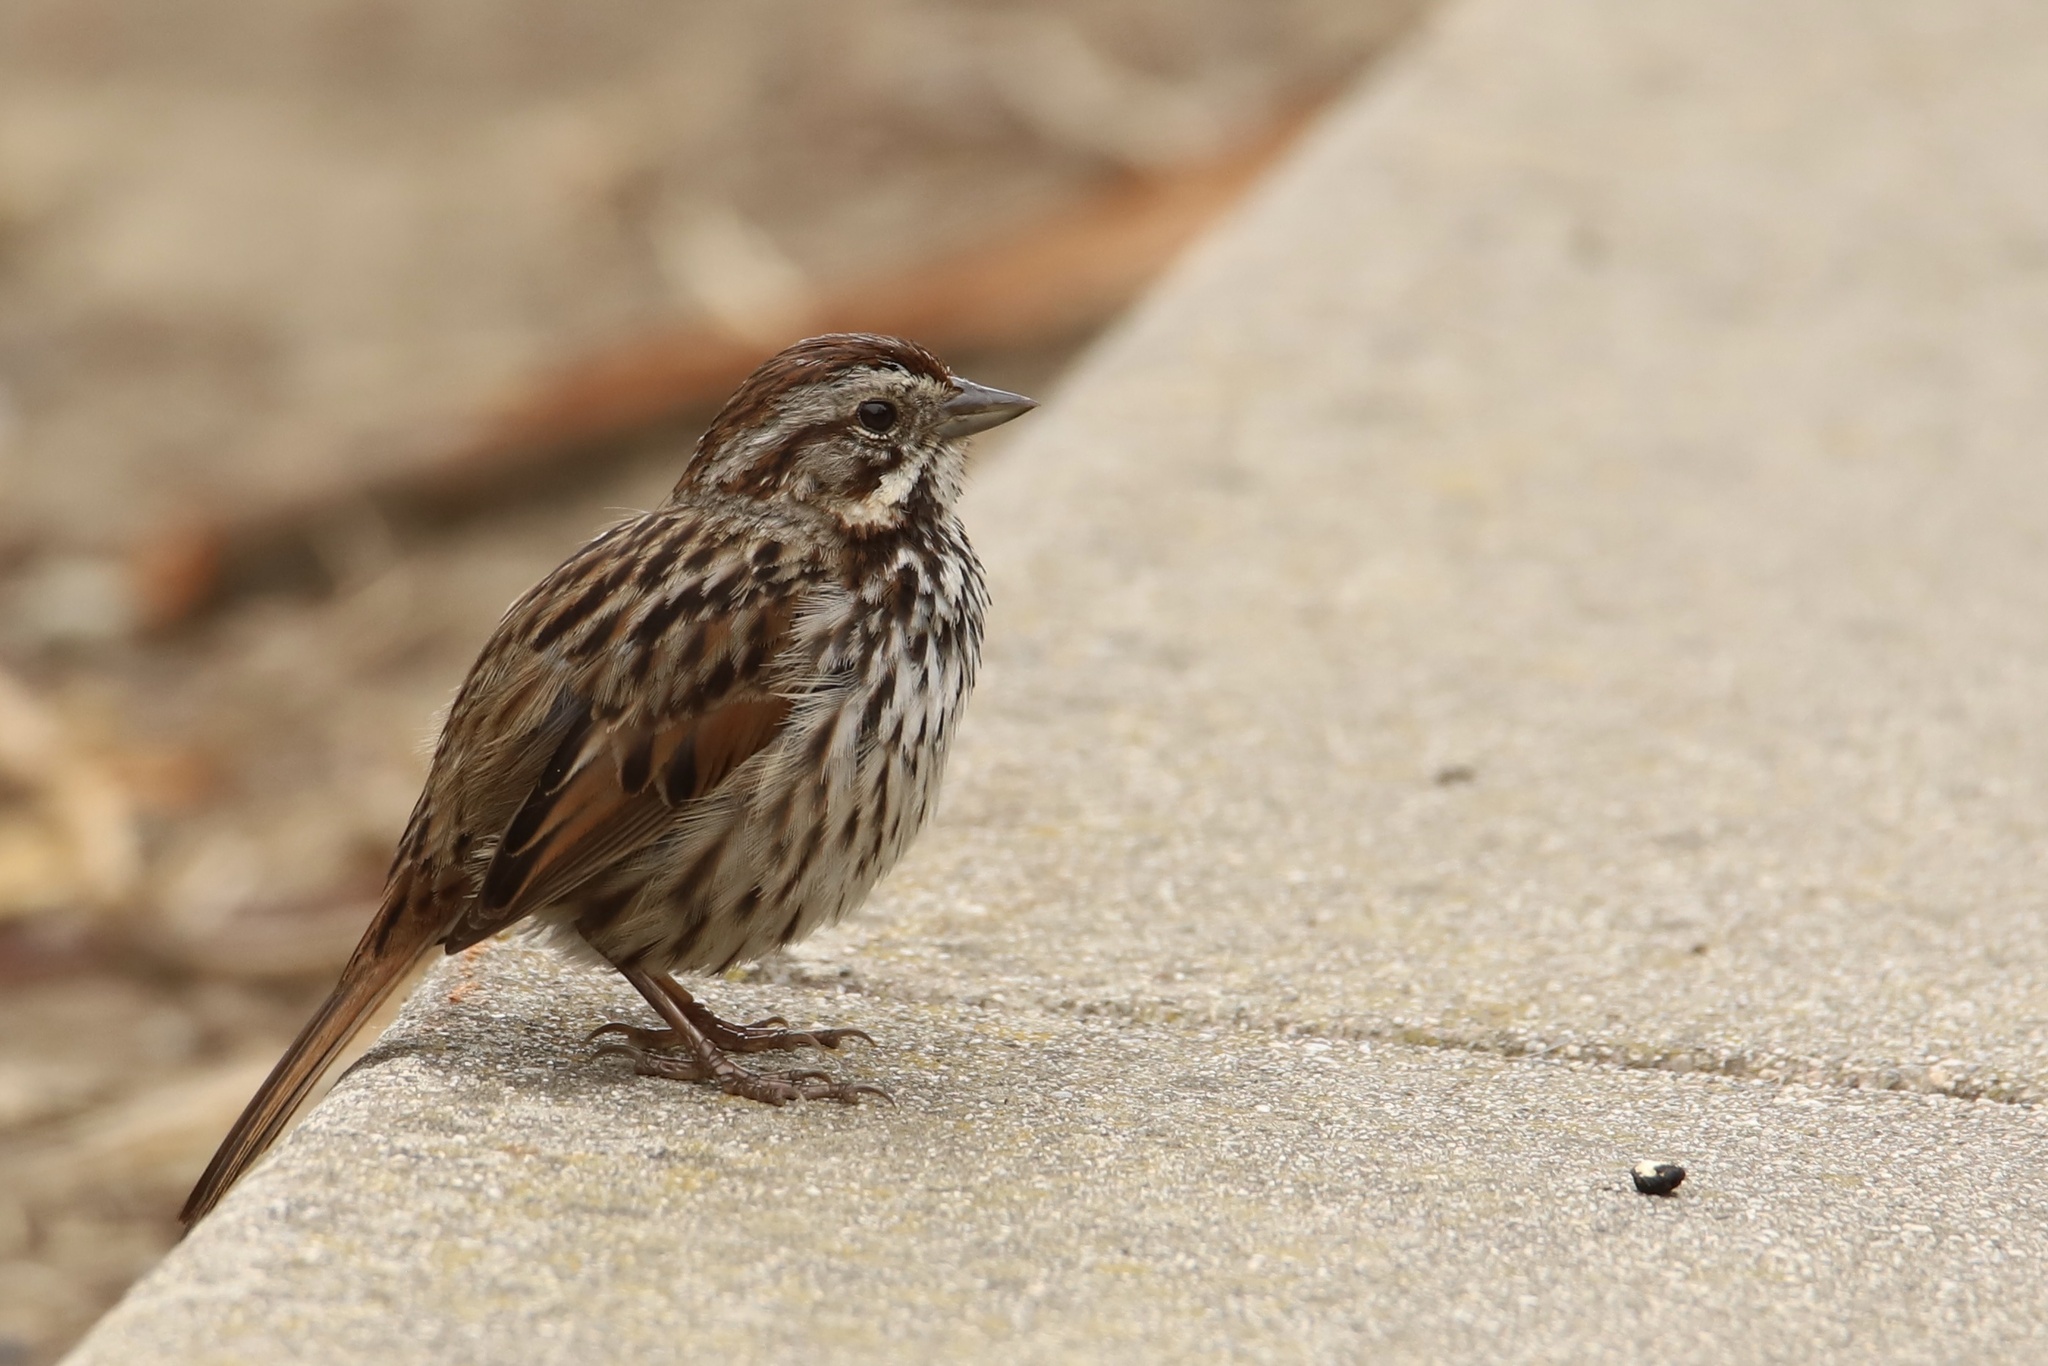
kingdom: Animalia
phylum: Chordata
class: Aves
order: Passeriformes
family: Passerellidae
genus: Melospiza
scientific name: Melospiza melodia
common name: Song sparrow
